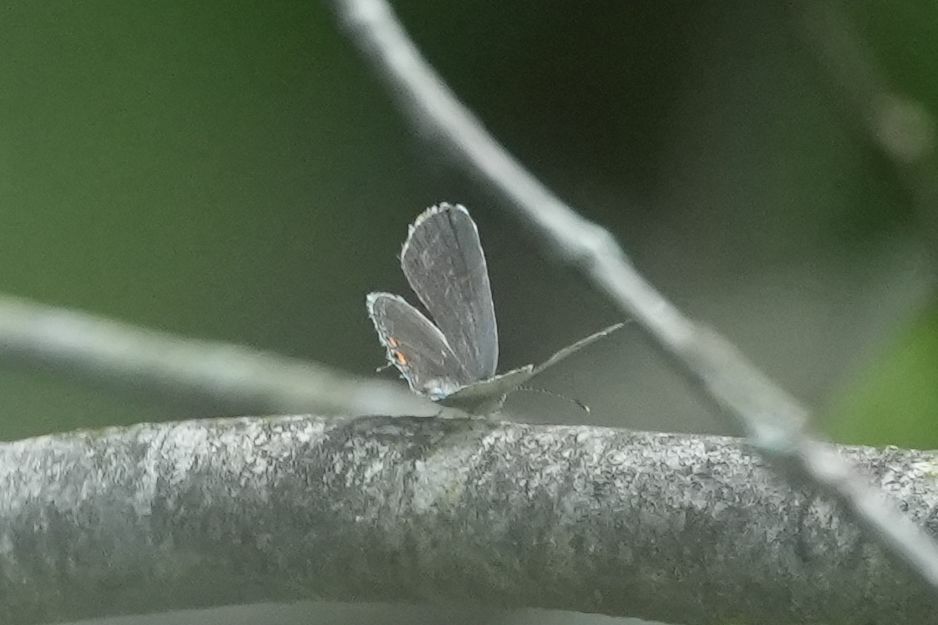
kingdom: Animalia
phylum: Arthropoda
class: Insecta
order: Lepidoptera
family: Lycaenidae
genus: Elkalyce
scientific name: Elkalyce comyntas
